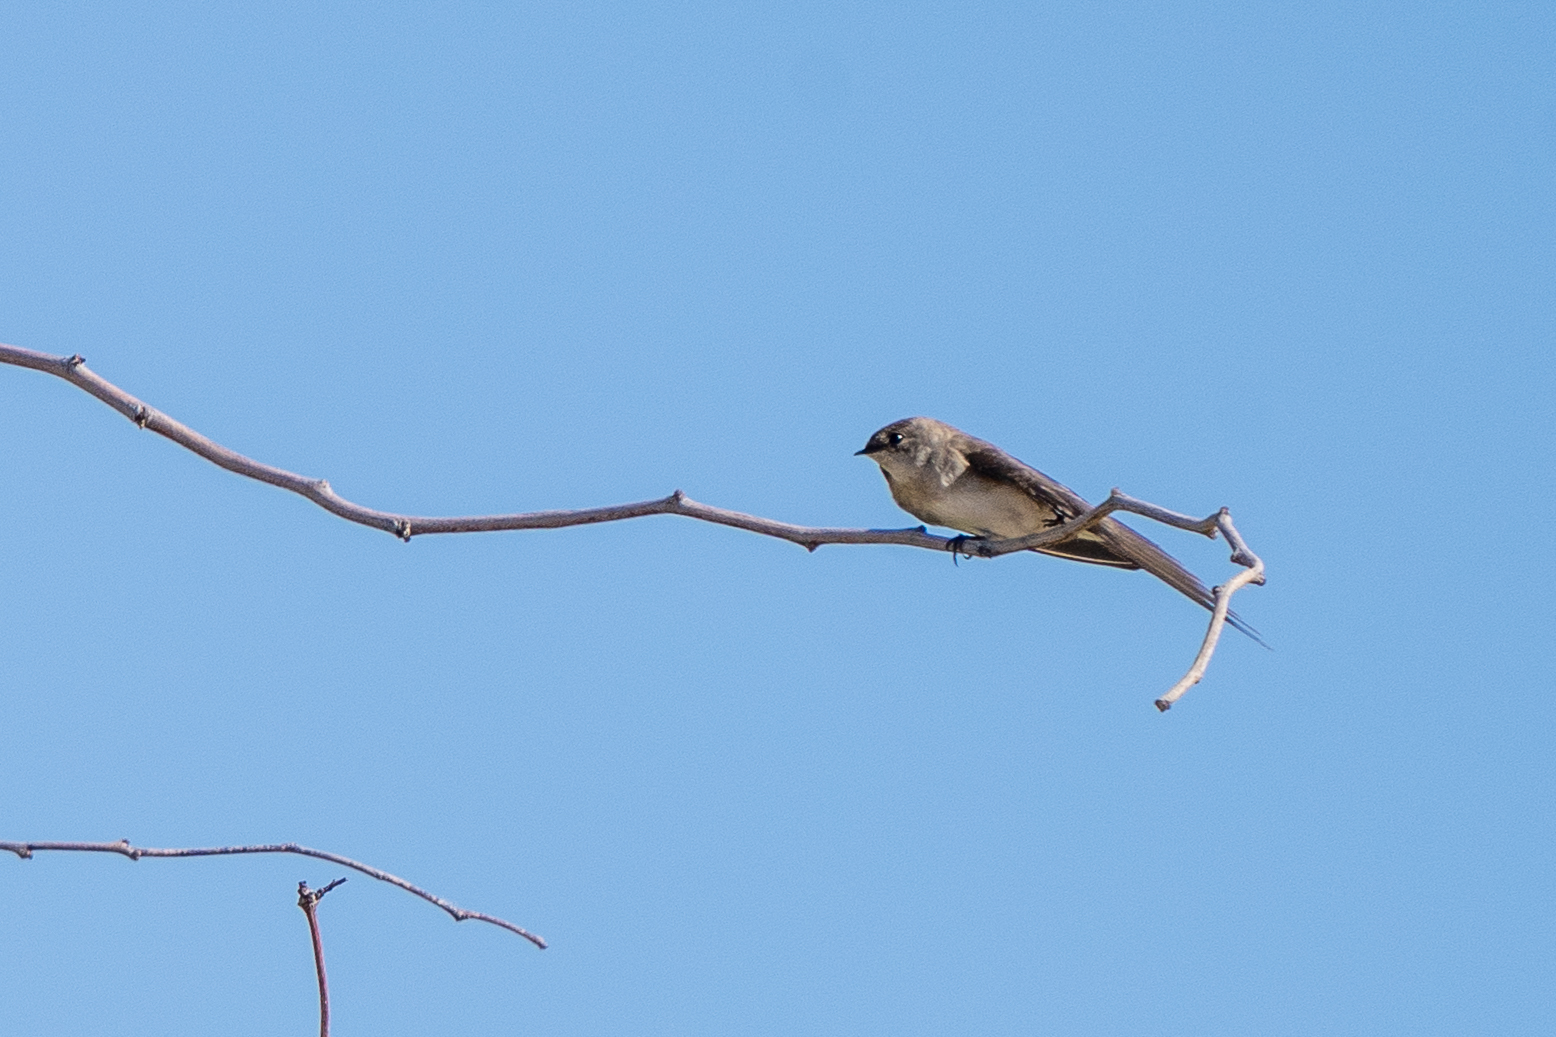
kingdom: Animalia
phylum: Chordata
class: Aves
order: Passeriformes
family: Hirundinidae
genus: Stelgidopteryx
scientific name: Stelgidopteryx serripennis
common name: Northern rough-winged swallow
